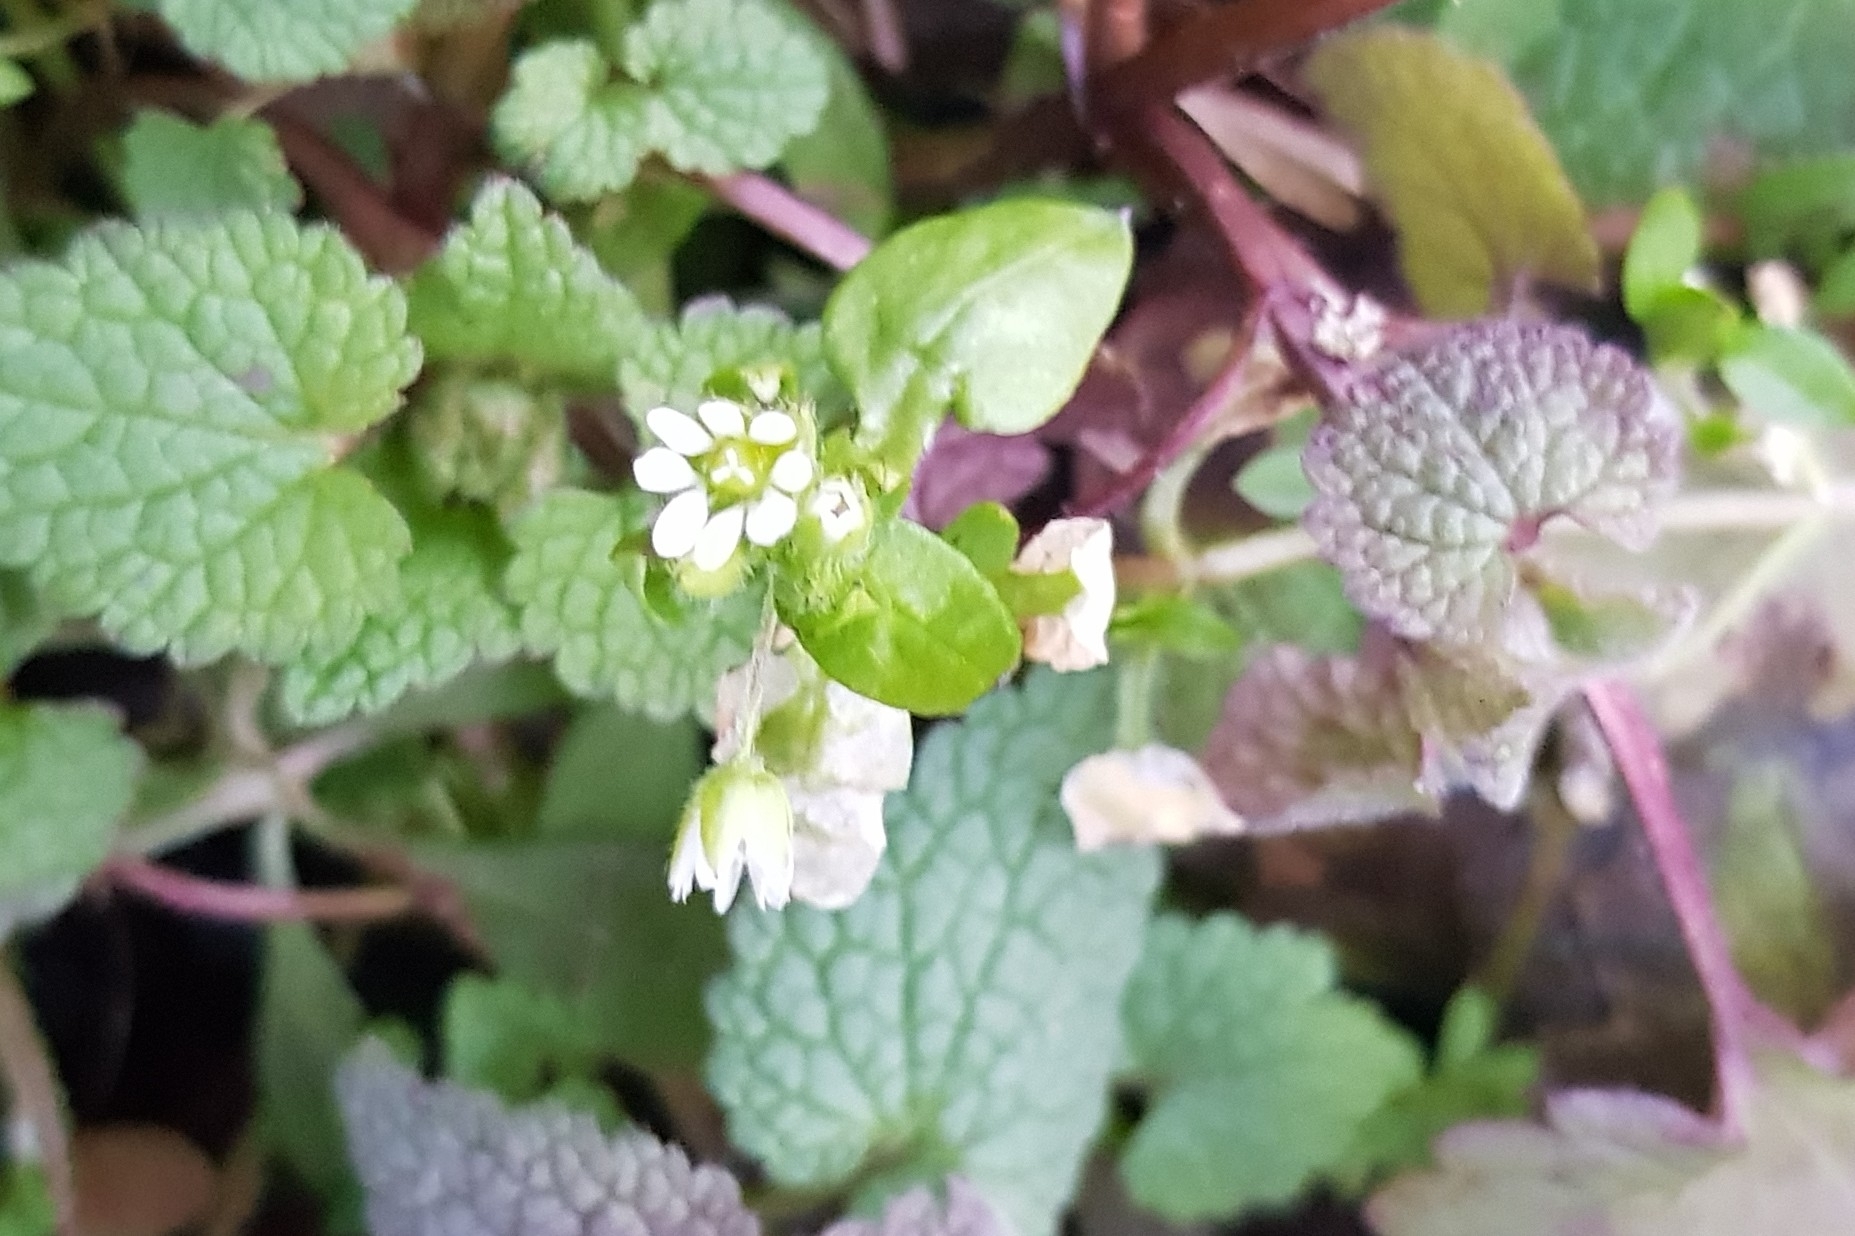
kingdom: Plantae
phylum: Tracheophyta
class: Magnoliopsida
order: Caryophyllales
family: Caryophyllaceae
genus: Stellaria
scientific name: Stellaria media
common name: Common chickweed
